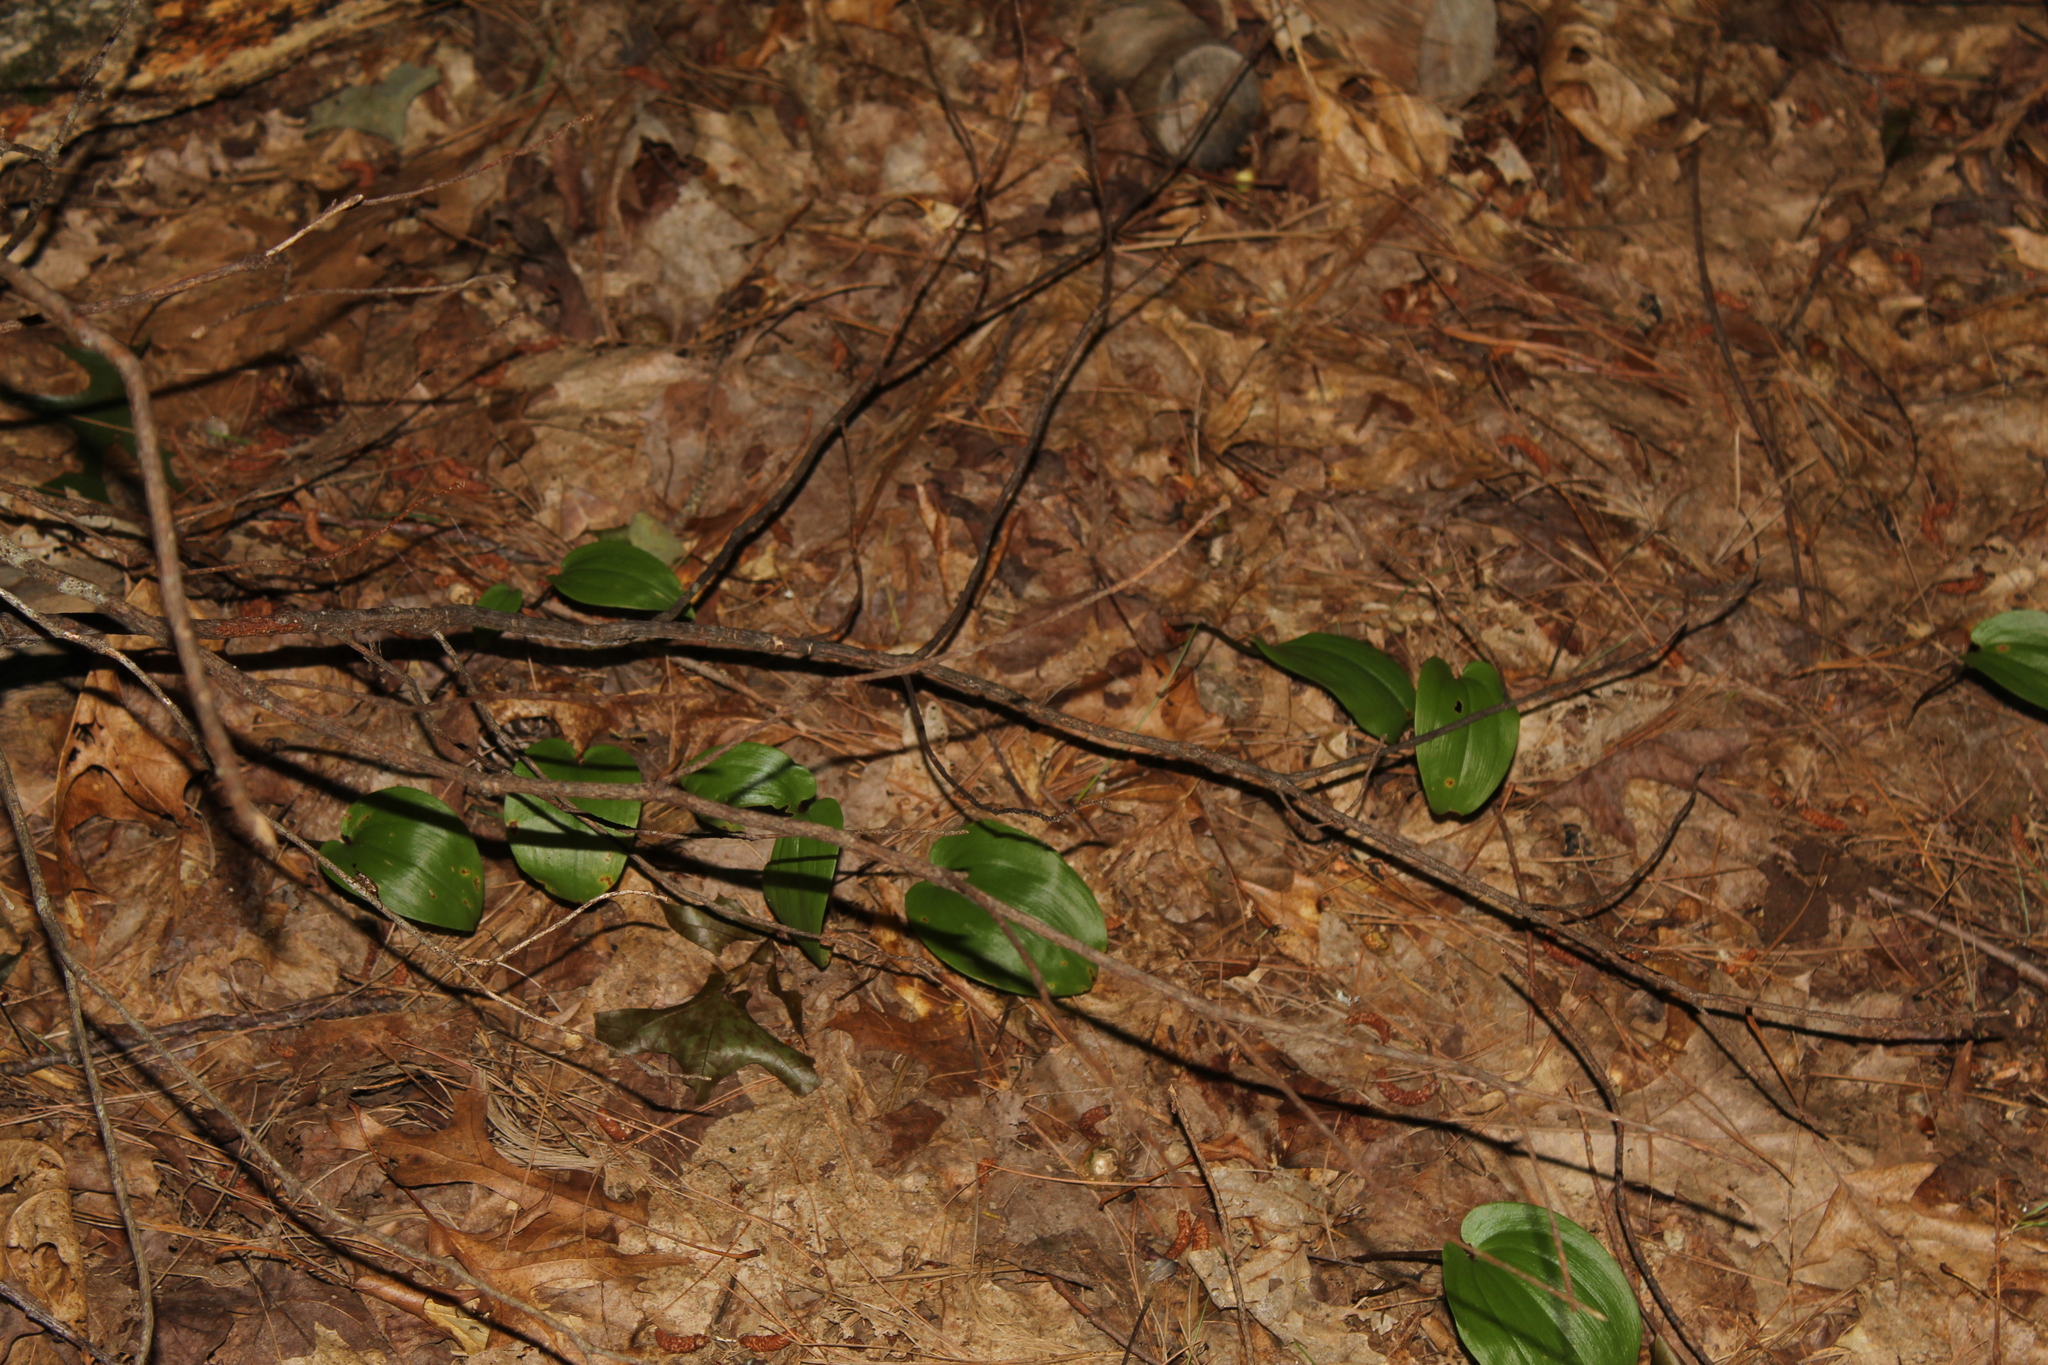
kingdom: Plantae
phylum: Tracheophyta
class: Liliopsida
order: Asparagales
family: Asparagaceae
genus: Maianthemum
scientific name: Maianthemum canadense
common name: False lily-of-the-valley
